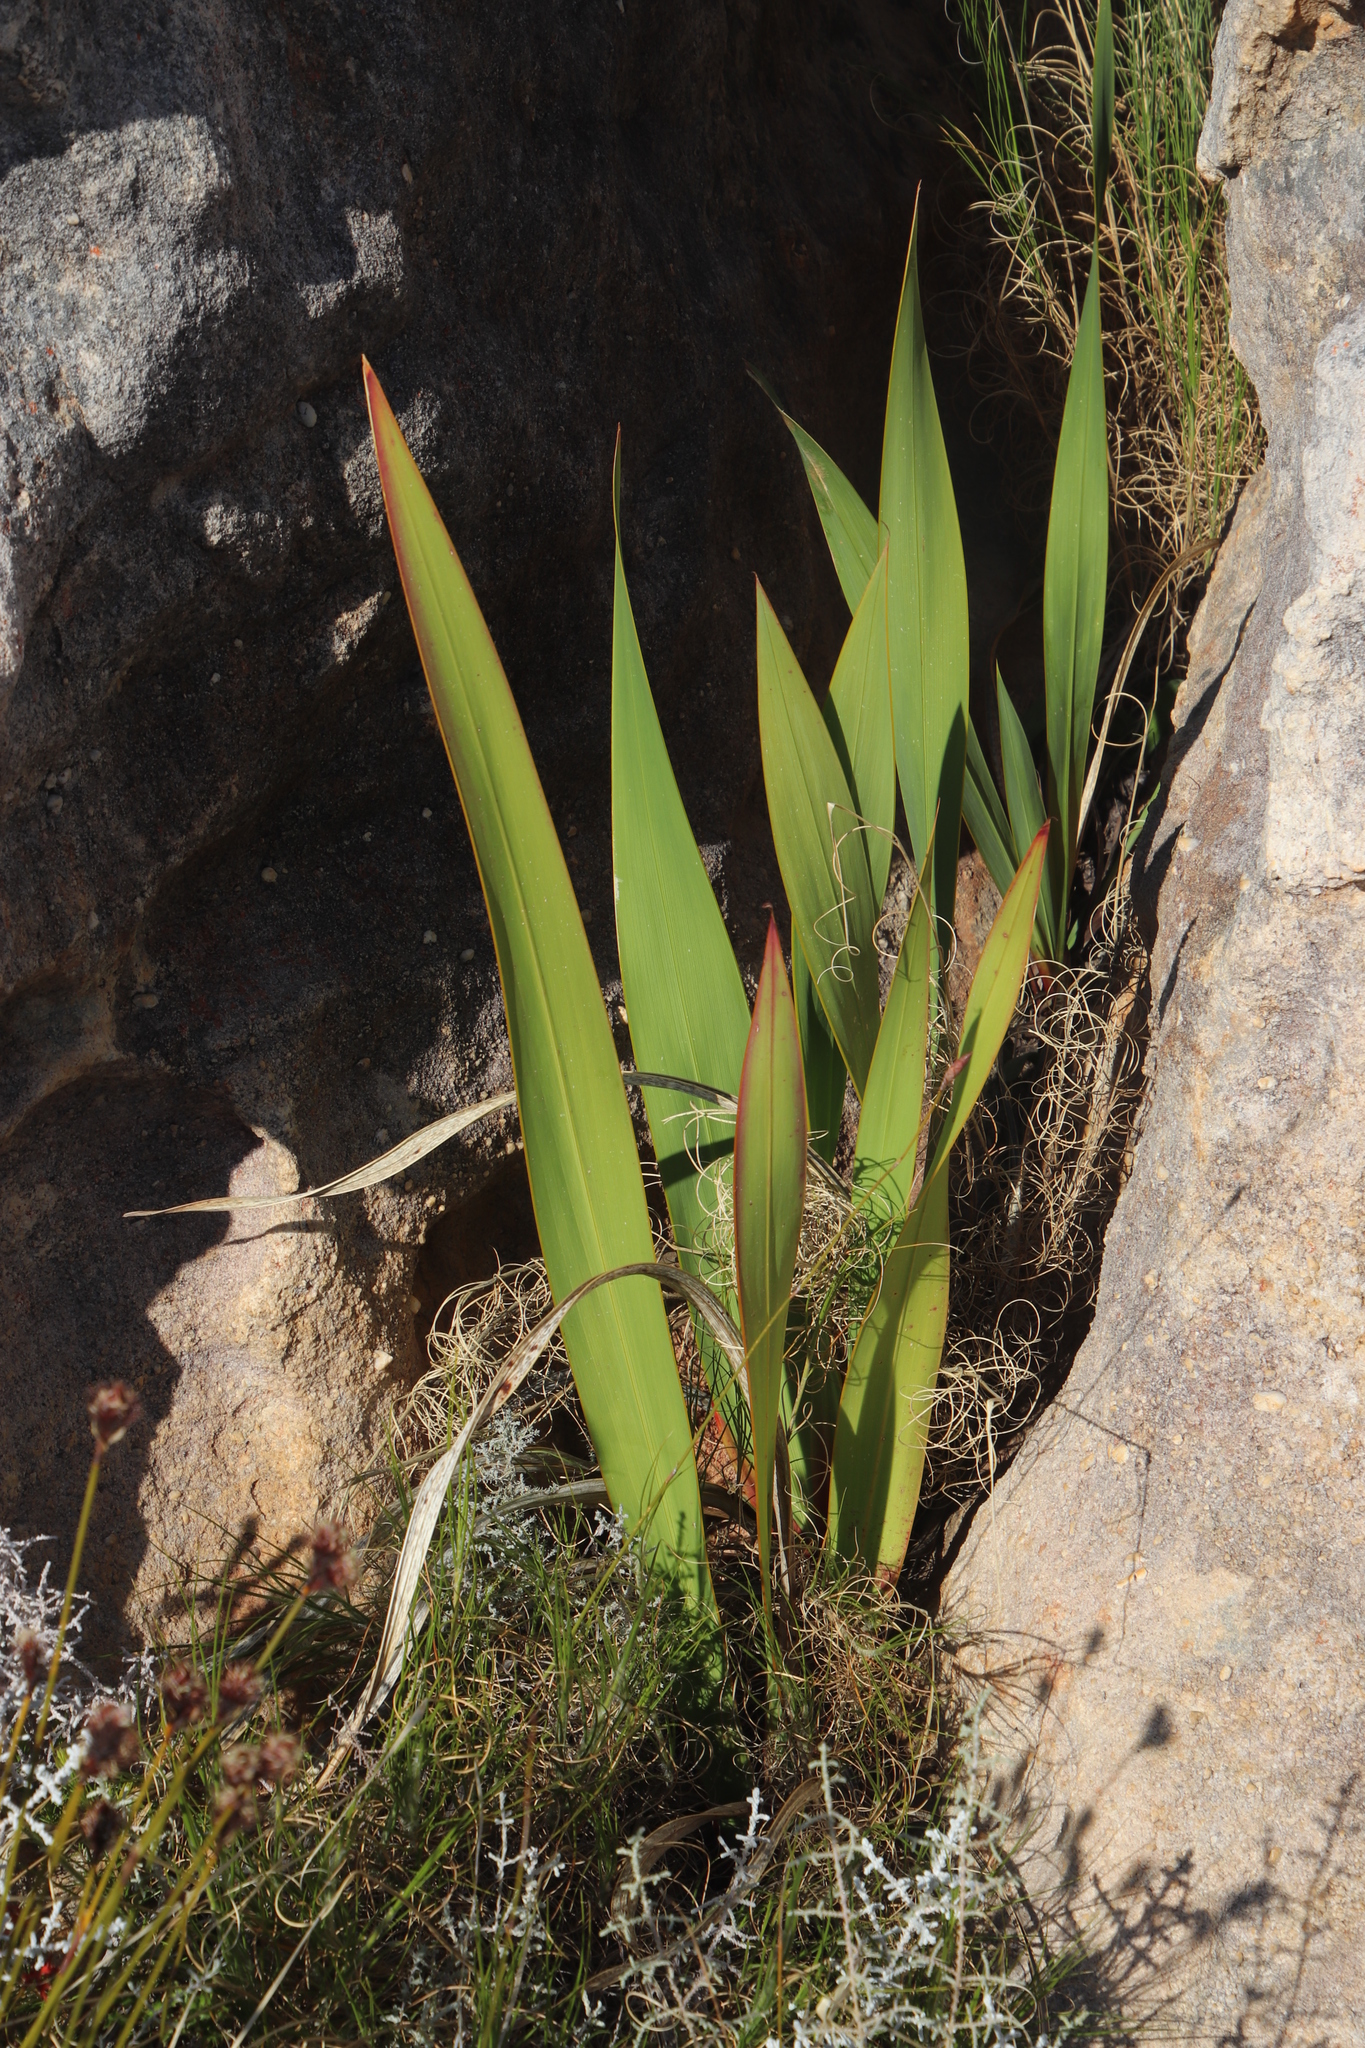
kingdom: Plantae
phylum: Tracheophyta
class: Liliopsida
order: Asparagales
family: Iridaceae
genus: Watsonia
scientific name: Watsonia vanderspuyae
